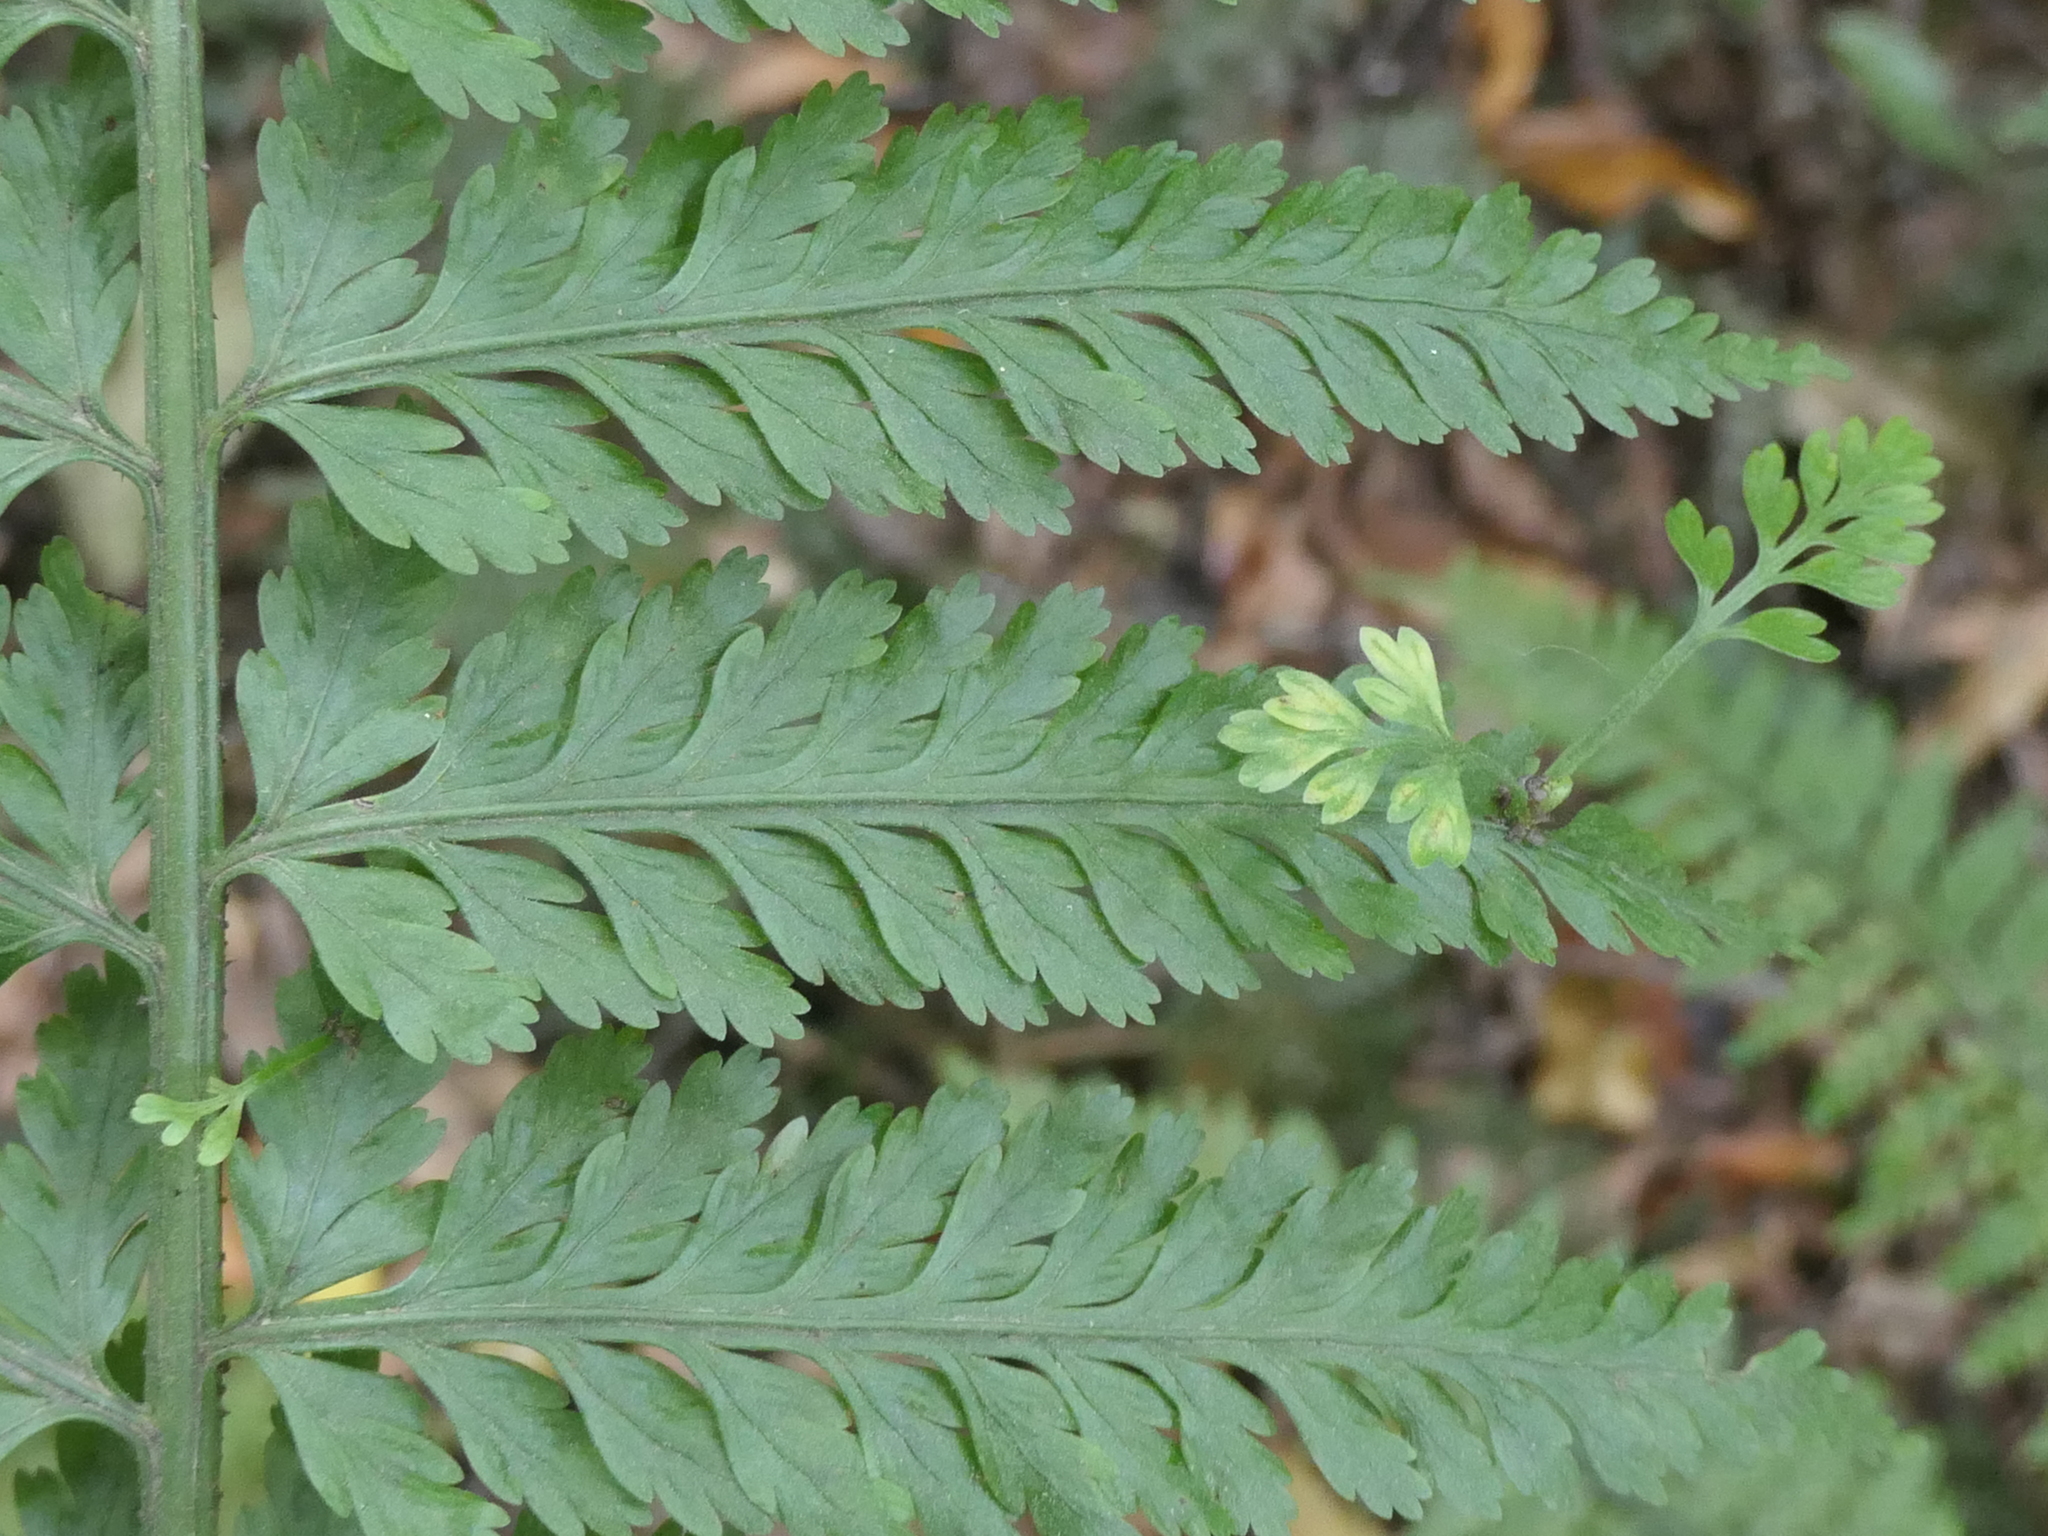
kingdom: Plantae
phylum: Tracheophyta
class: Polypodiopsida
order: Polypodiales
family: Aspleniaceae
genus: Asplenium
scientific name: Asplenium bulbiferum
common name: Mother fern
